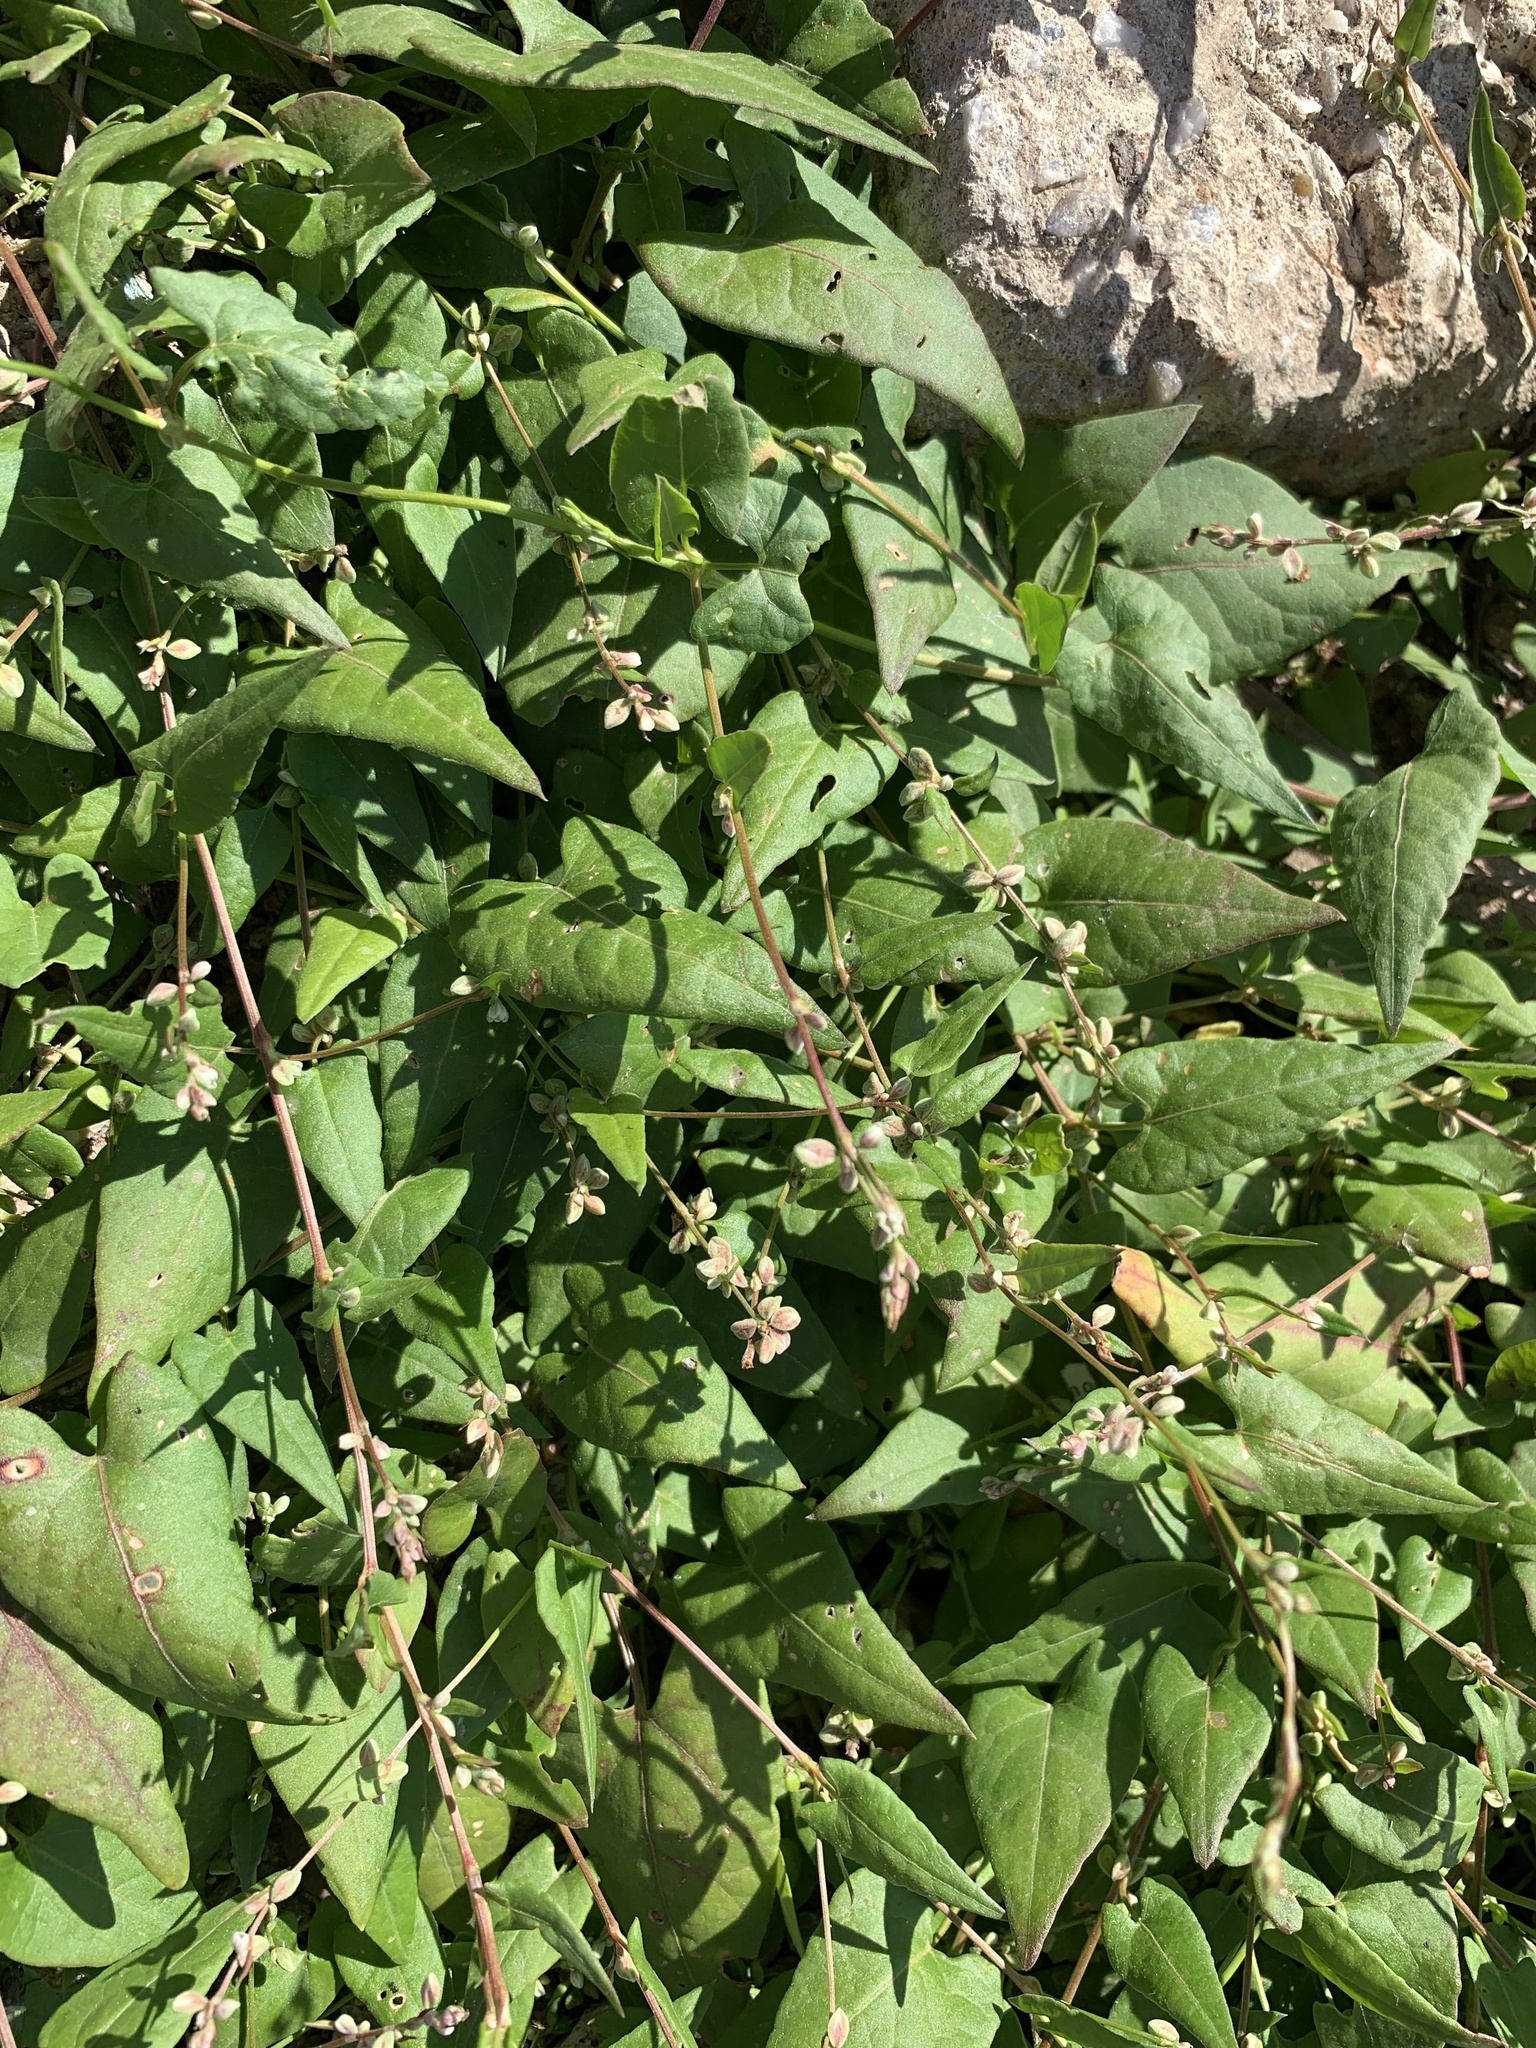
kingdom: Plantae
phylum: Tracheophyta
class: Magnoliopsida
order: Caryophyllales
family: Polygonaceae
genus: Fallopia
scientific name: Fallopia convolvulus
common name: Black bindweed
